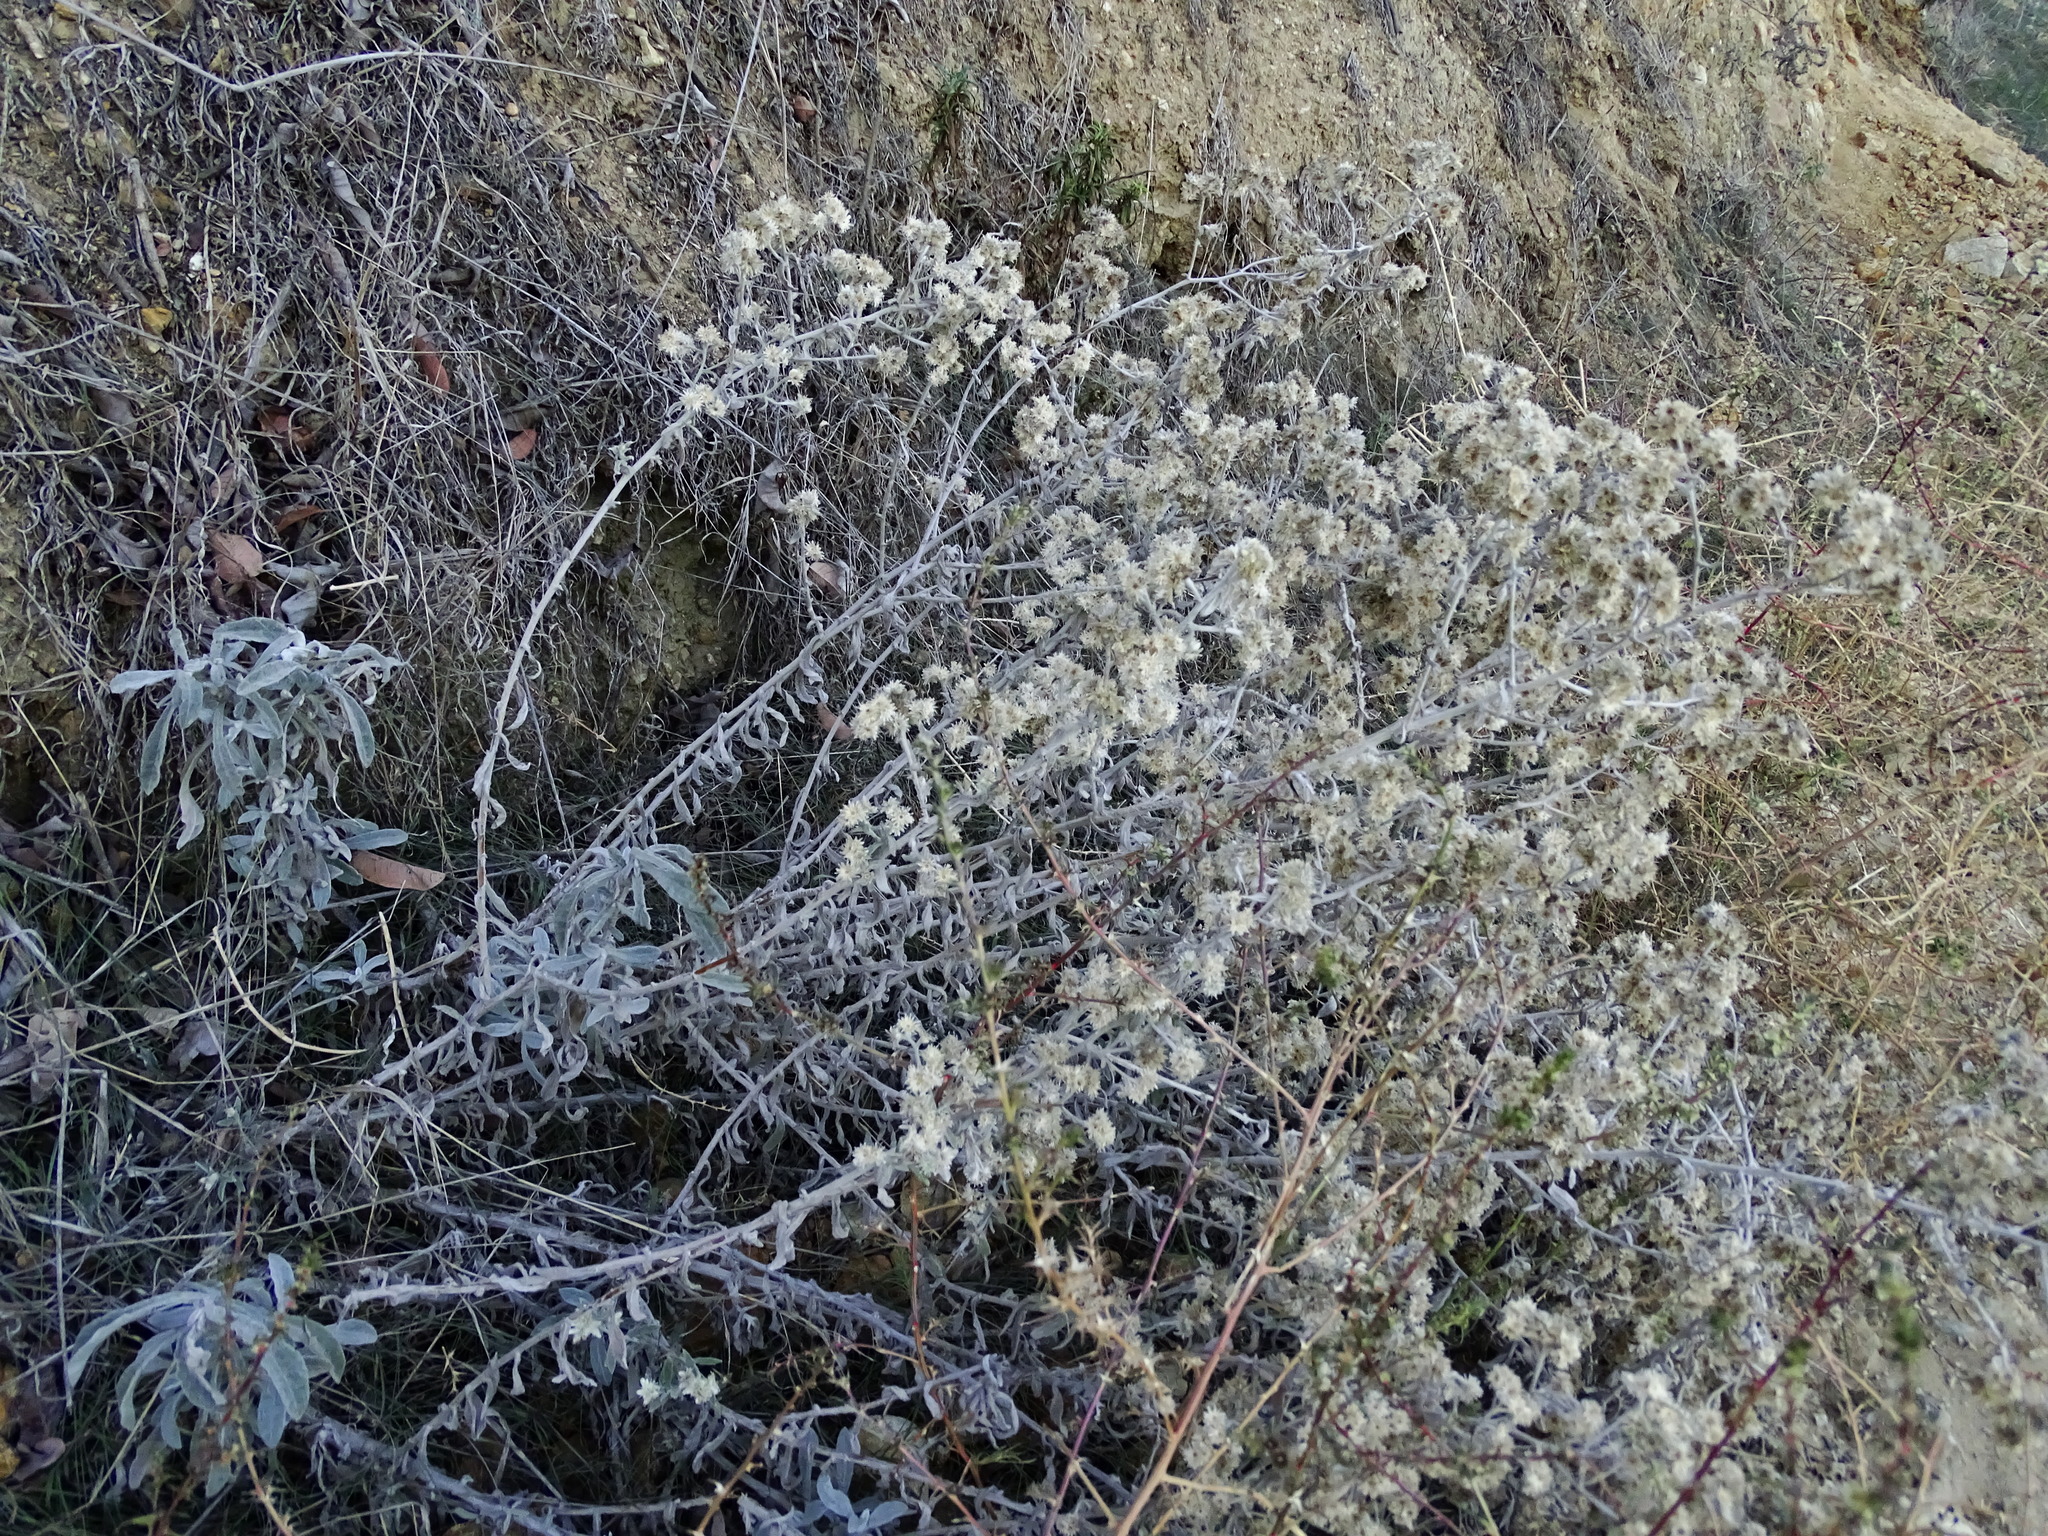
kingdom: Plantae
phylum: Tracheophyta
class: Magnoliopsida
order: Asterales
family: Asteraceae
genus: Pseudognaphalium
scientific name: Pseudognaphalium microcephalum
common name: San diego rabbit-tobacco
